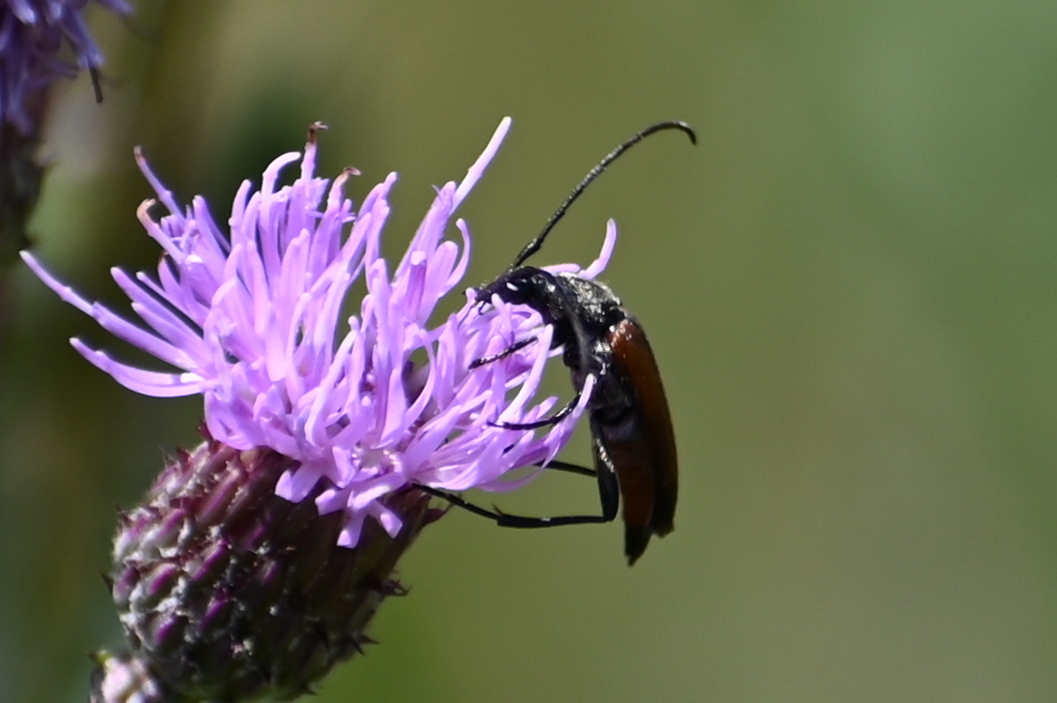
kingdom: Animalia
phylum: Arthropoda
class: Insecta
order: Coleoptera
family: Cerambycidae
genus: Stenurella
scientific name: Stenurella bifasciata
